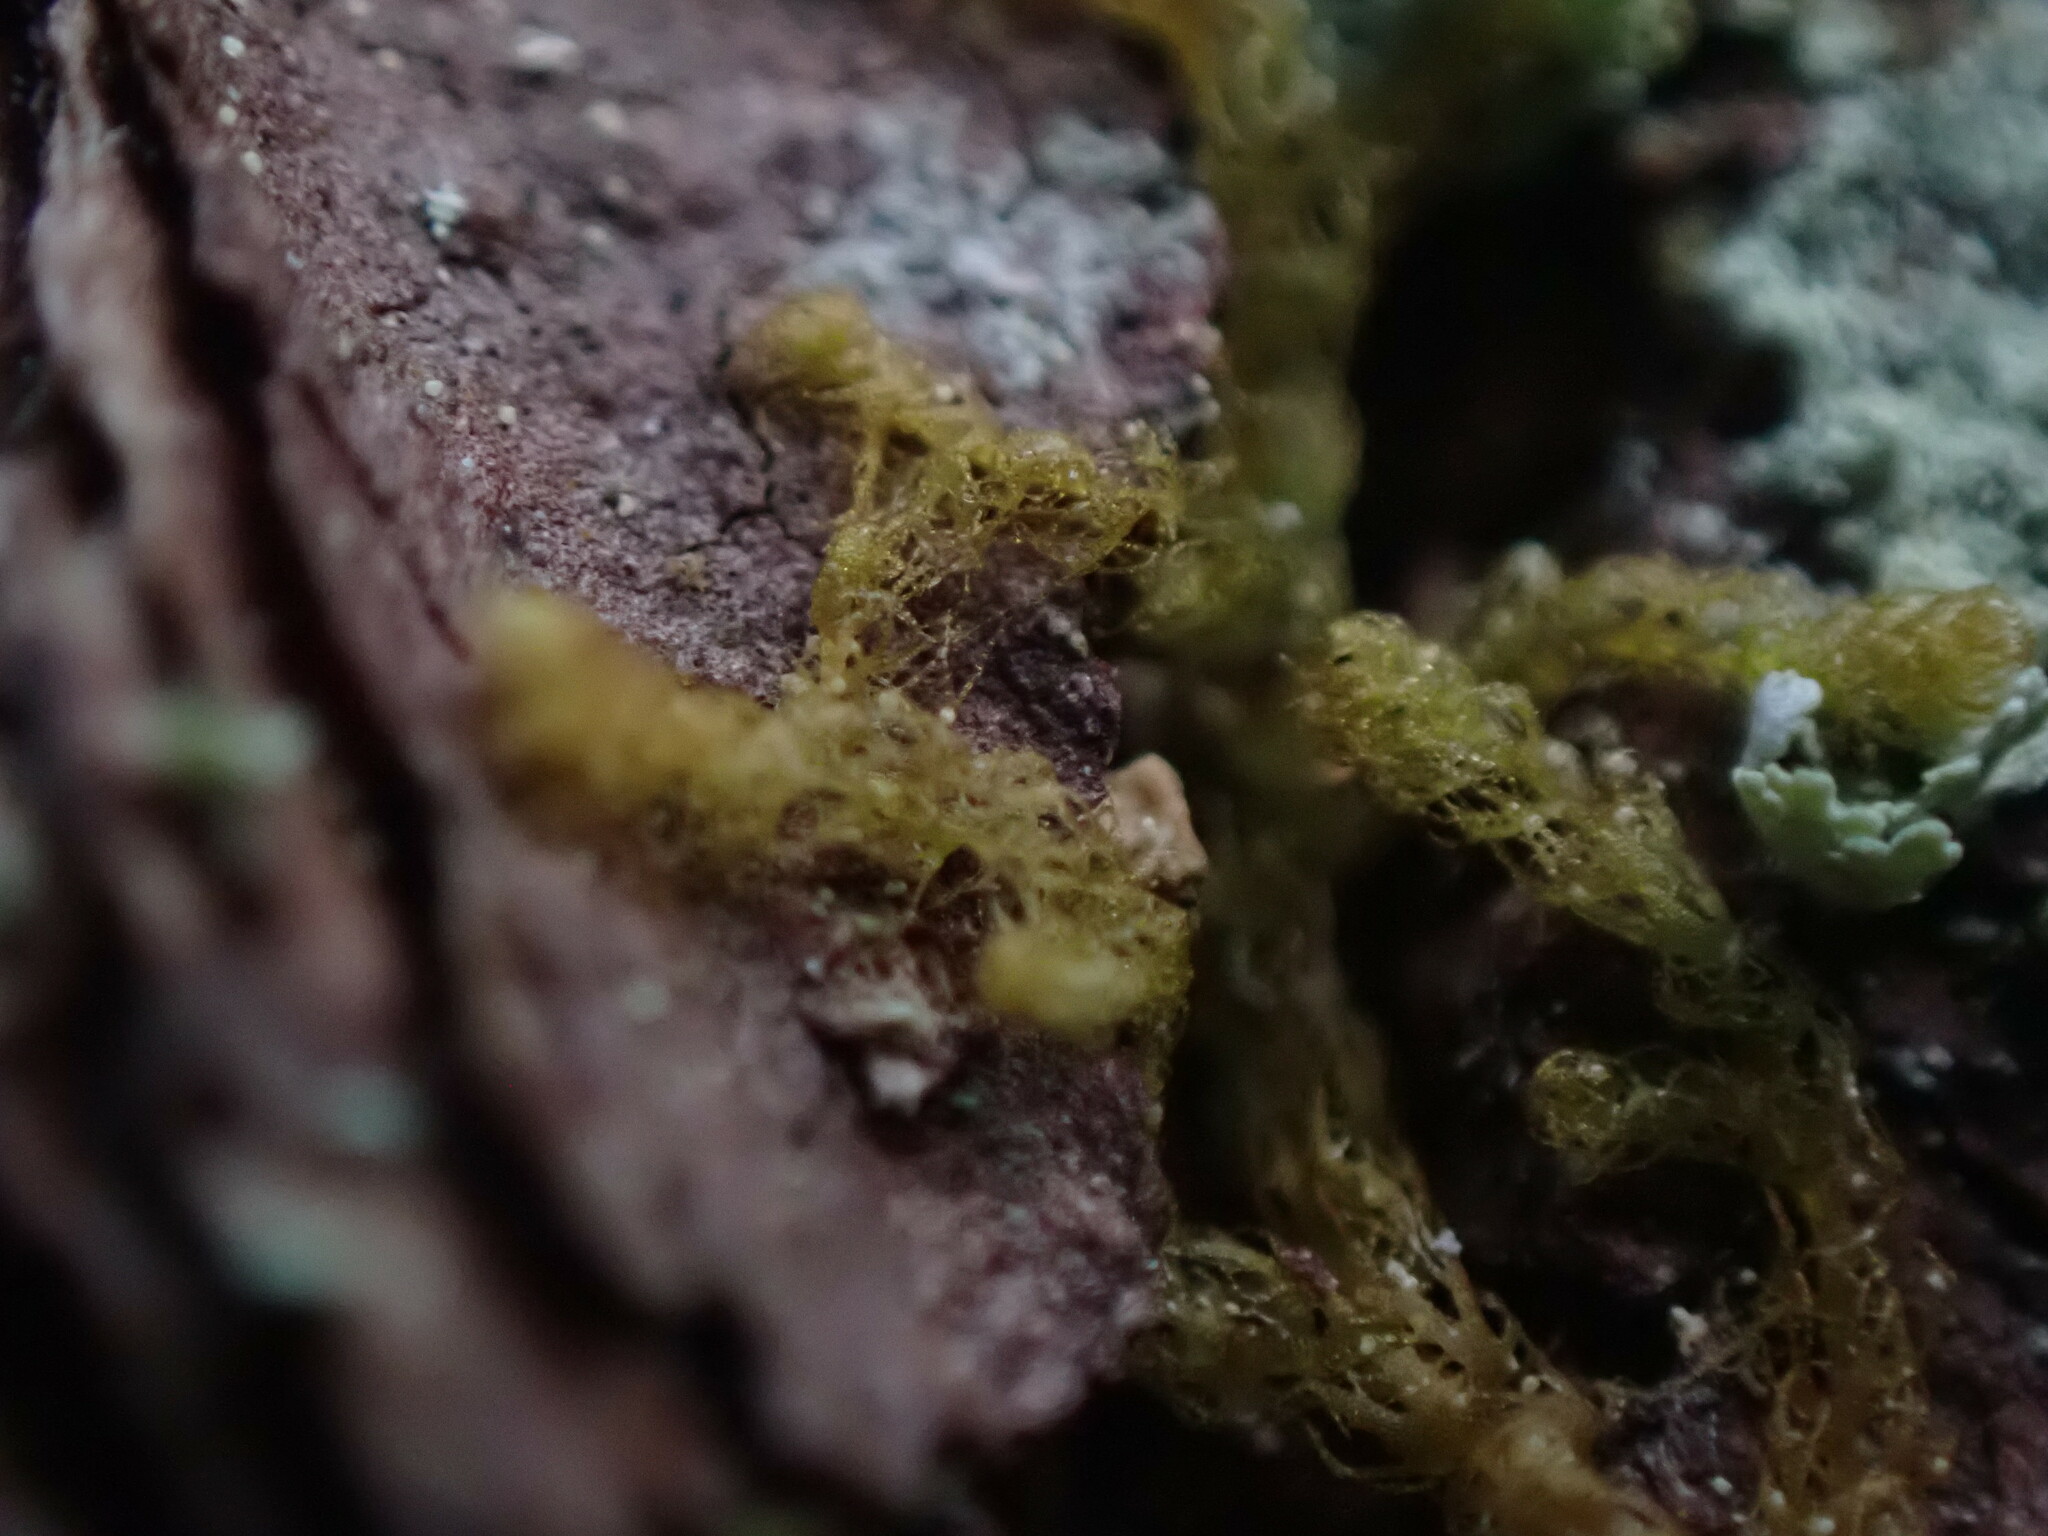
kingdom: Plantae
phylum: Marchantiophyta
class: Jungermanniopsida
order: Ptilidiales
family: Ptilidiaceae
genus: Ptilidium
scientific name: Ptilidium californicum
